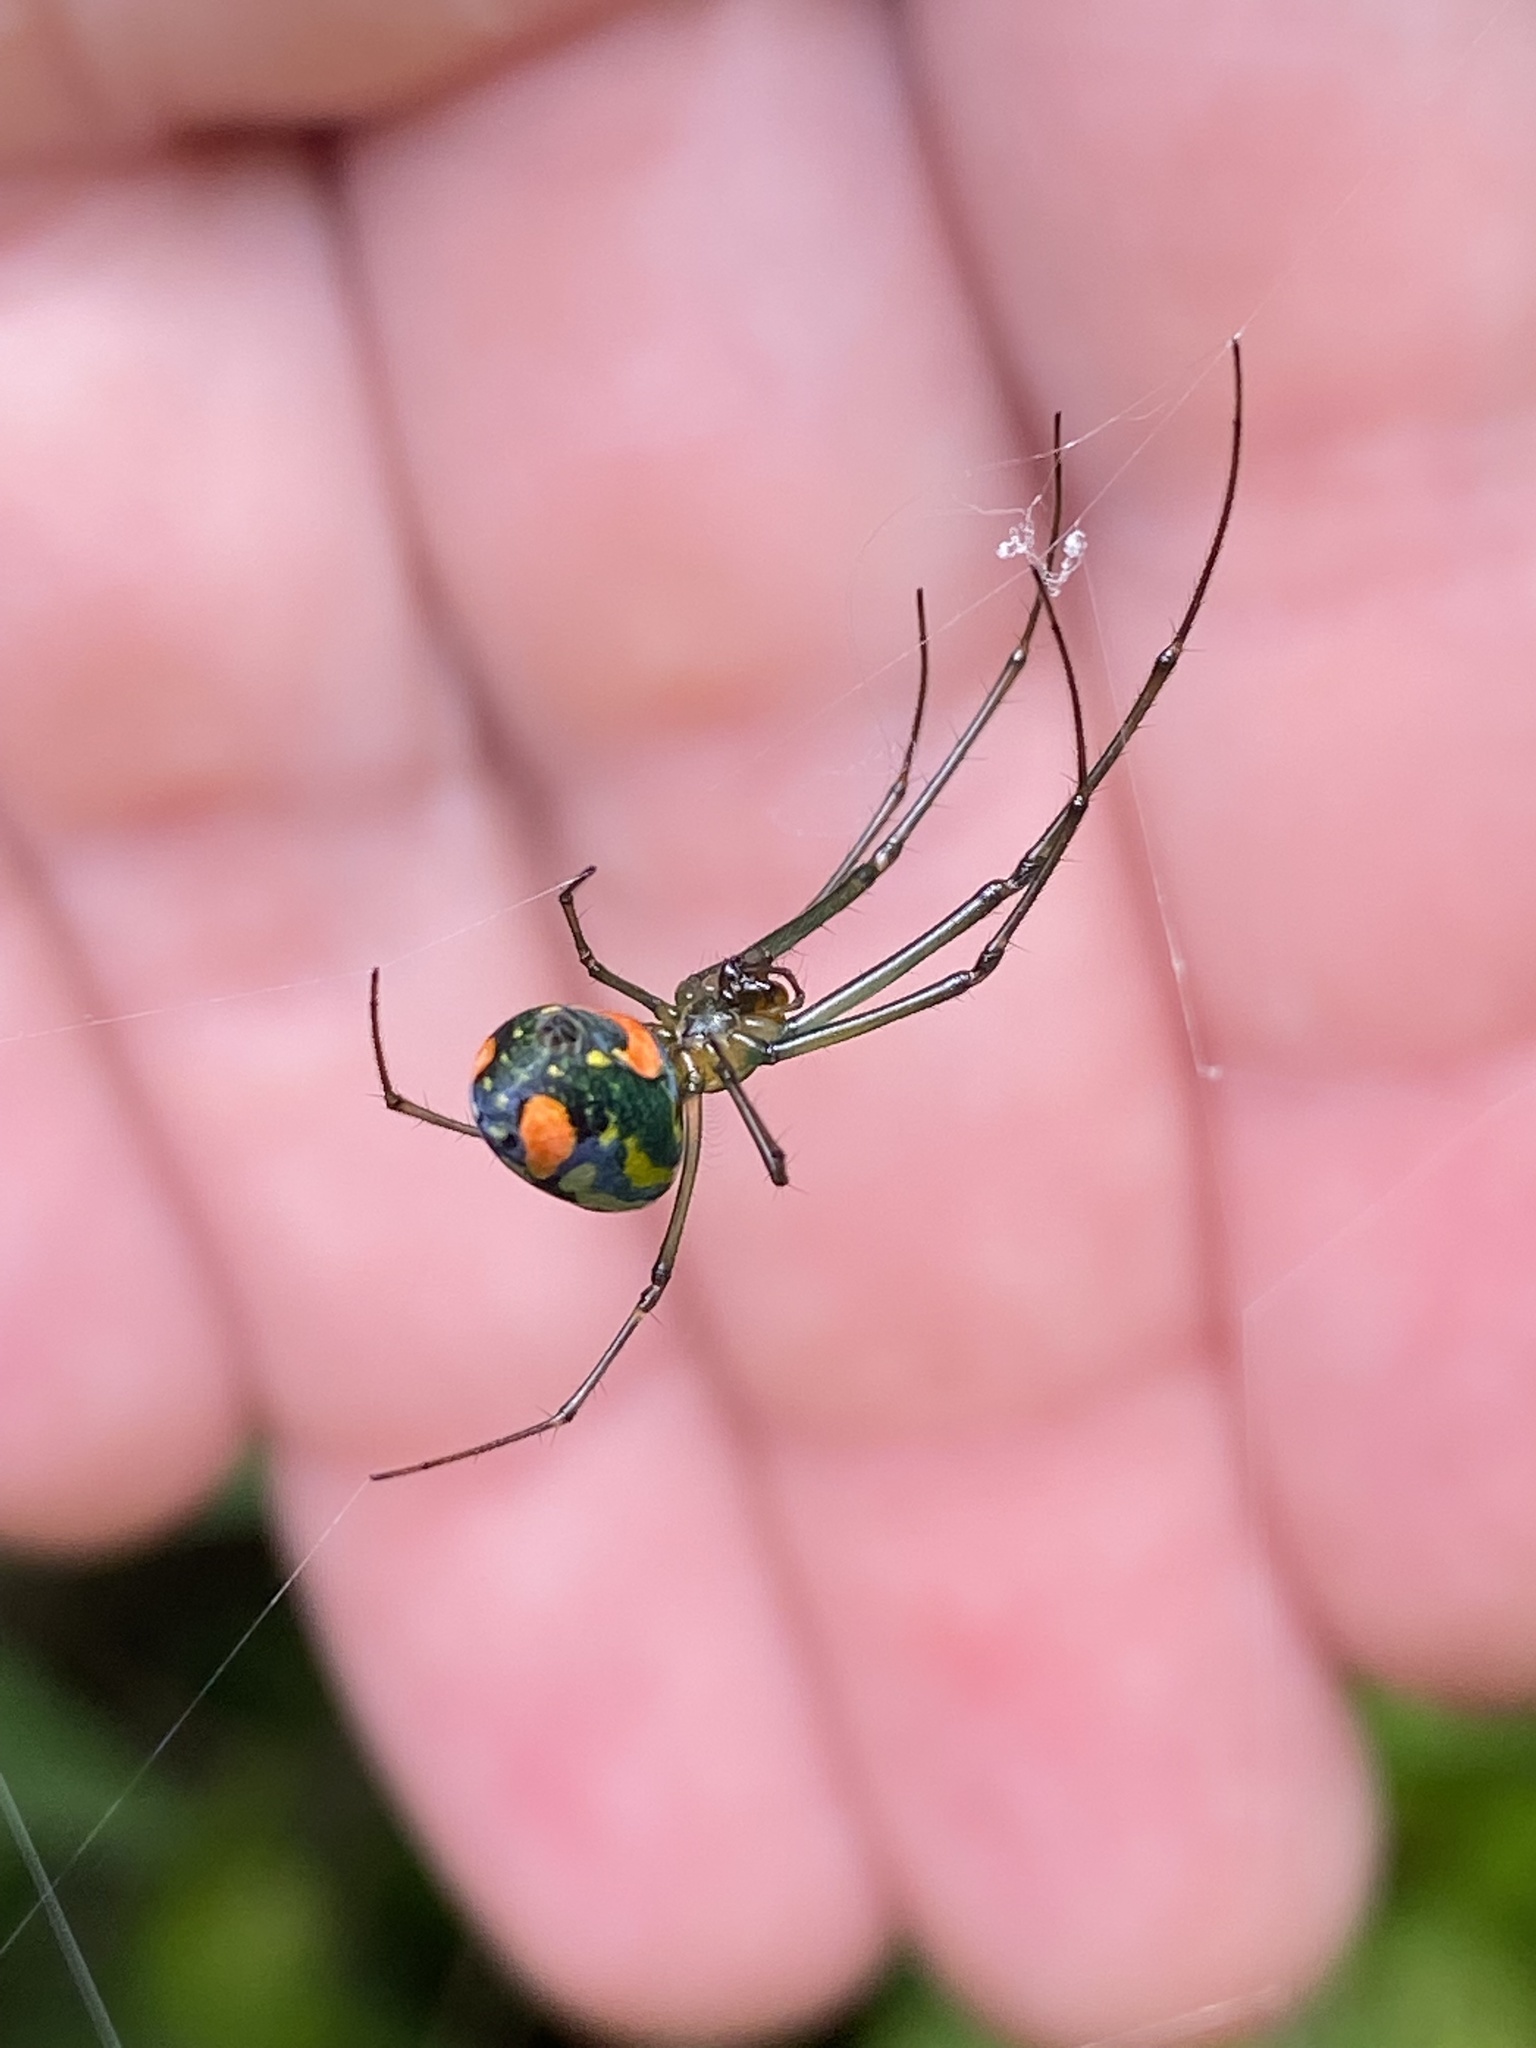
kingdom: Animalia
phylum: Arthropoda
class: Arachnida
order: Araneae
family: Tetragnathidae
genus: Leucauge
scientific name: Leucauge argyrobapta
